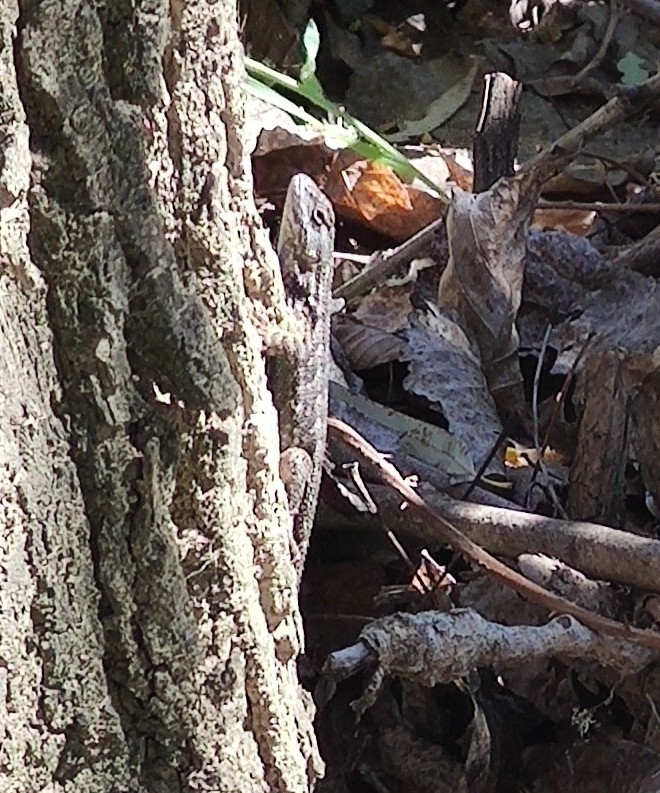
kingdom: Animalia
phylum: Chordata
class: Squamata
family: Phrynosomatidae
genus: Sceloporus
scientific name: Sceloporus occidentalis
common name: Western fence lizard
